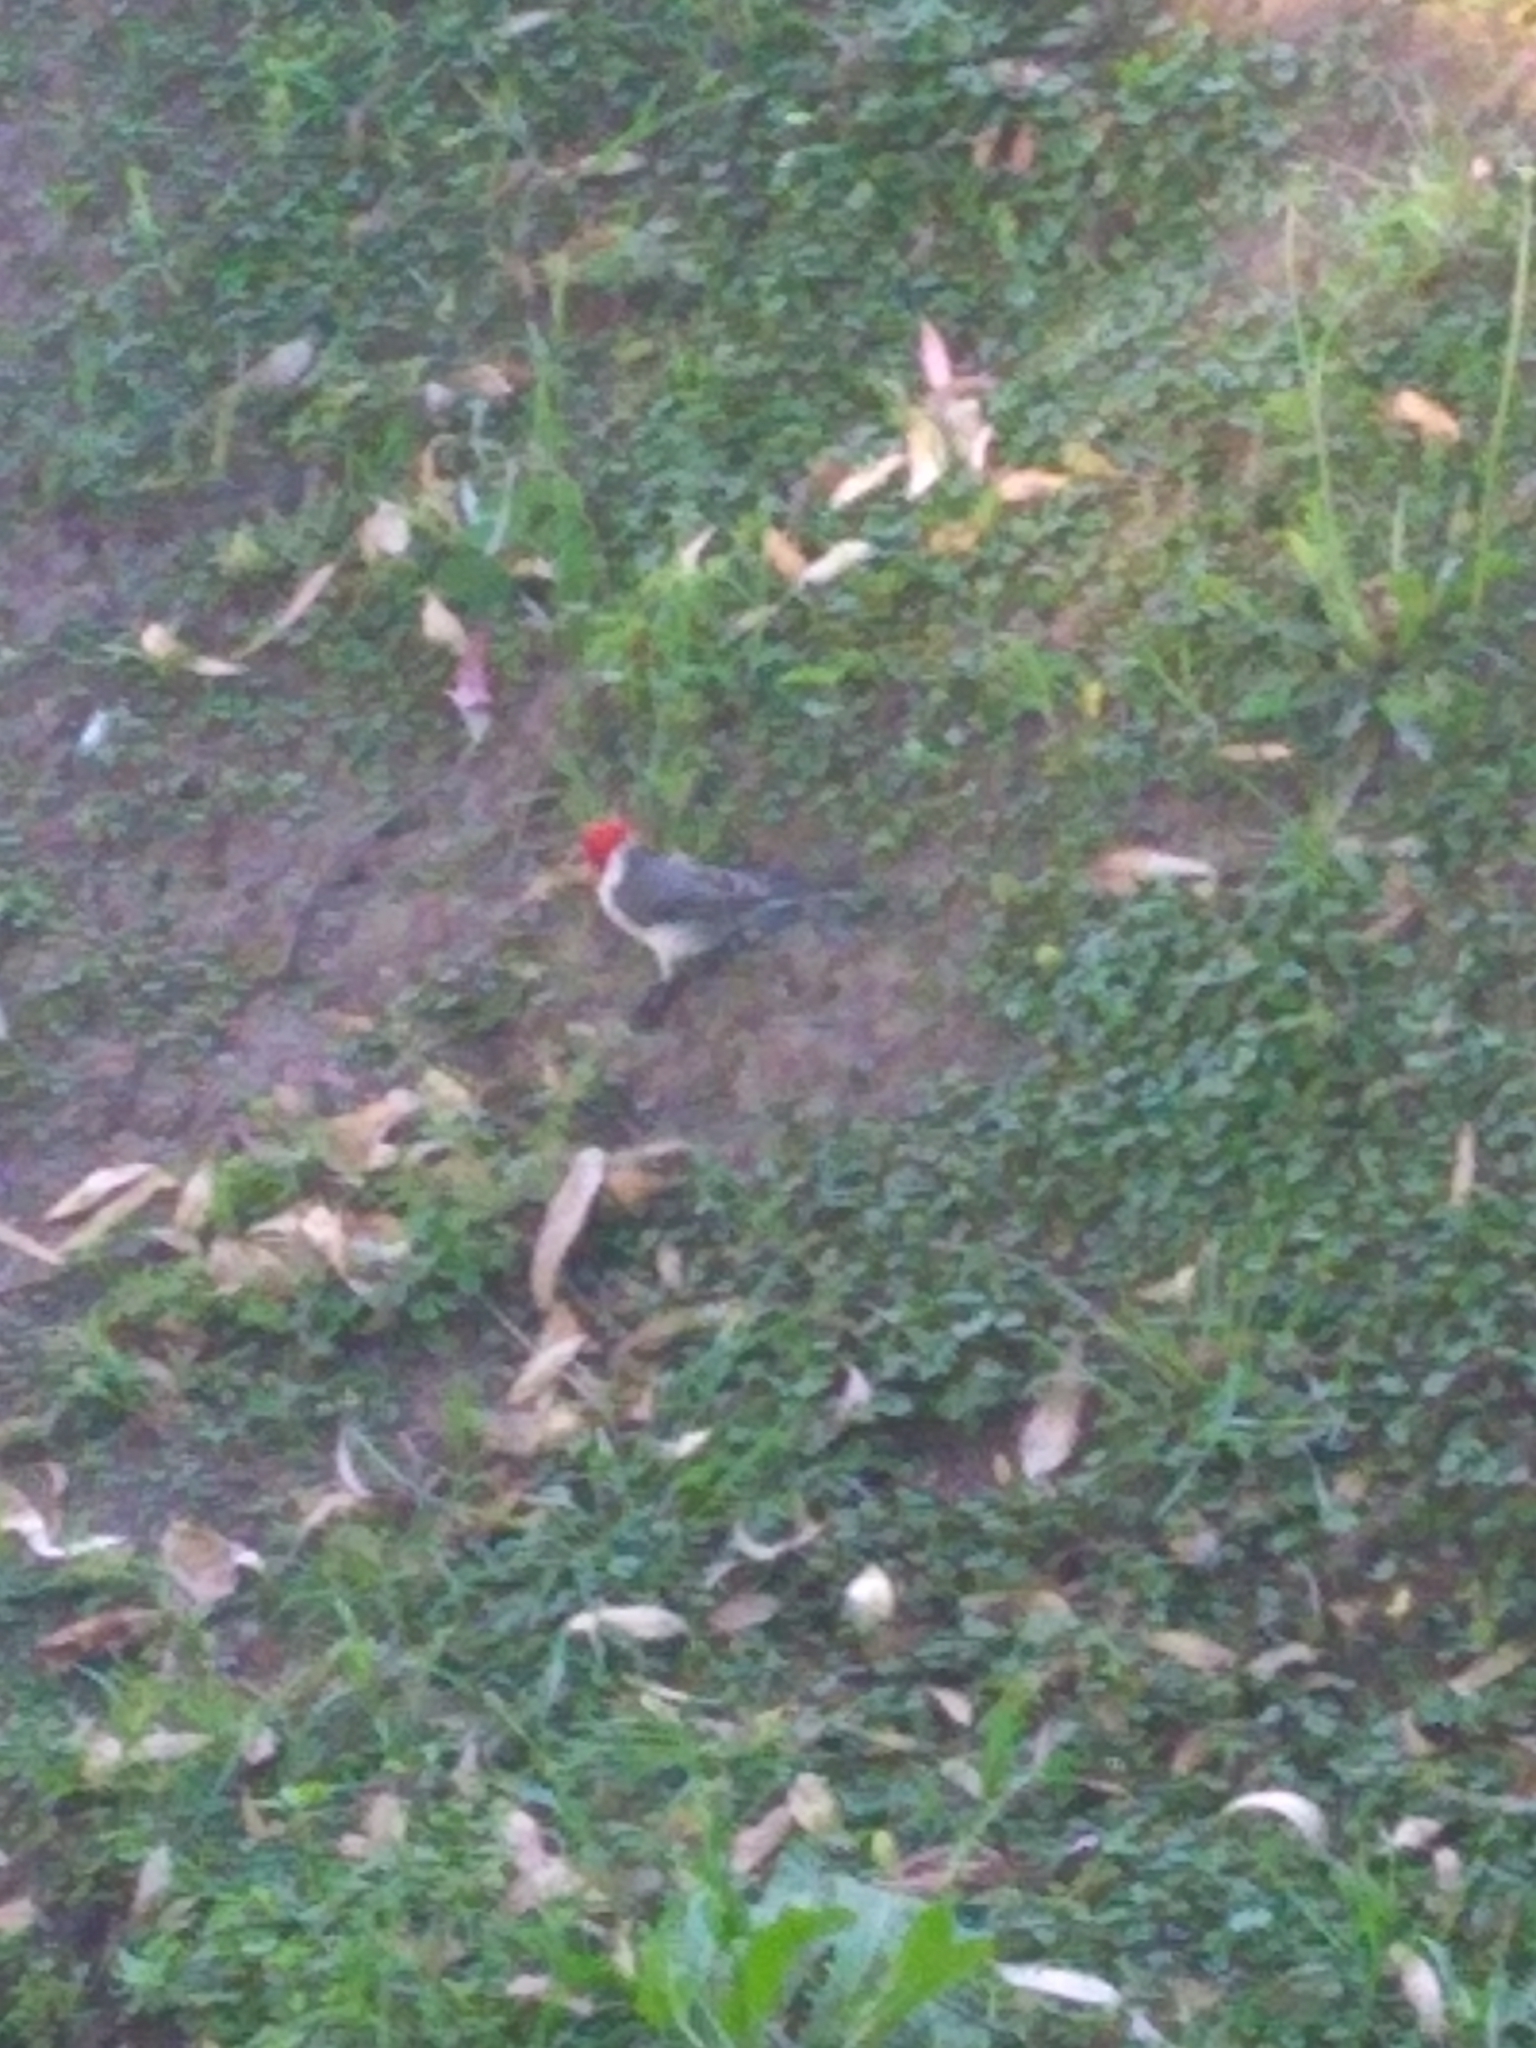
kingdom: Animalia
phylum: Chordata
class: Aves
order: Passeriformes
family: Thraupidae
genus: Paroaria
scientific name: Paroaria coronata
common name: Red-crested cardinal
